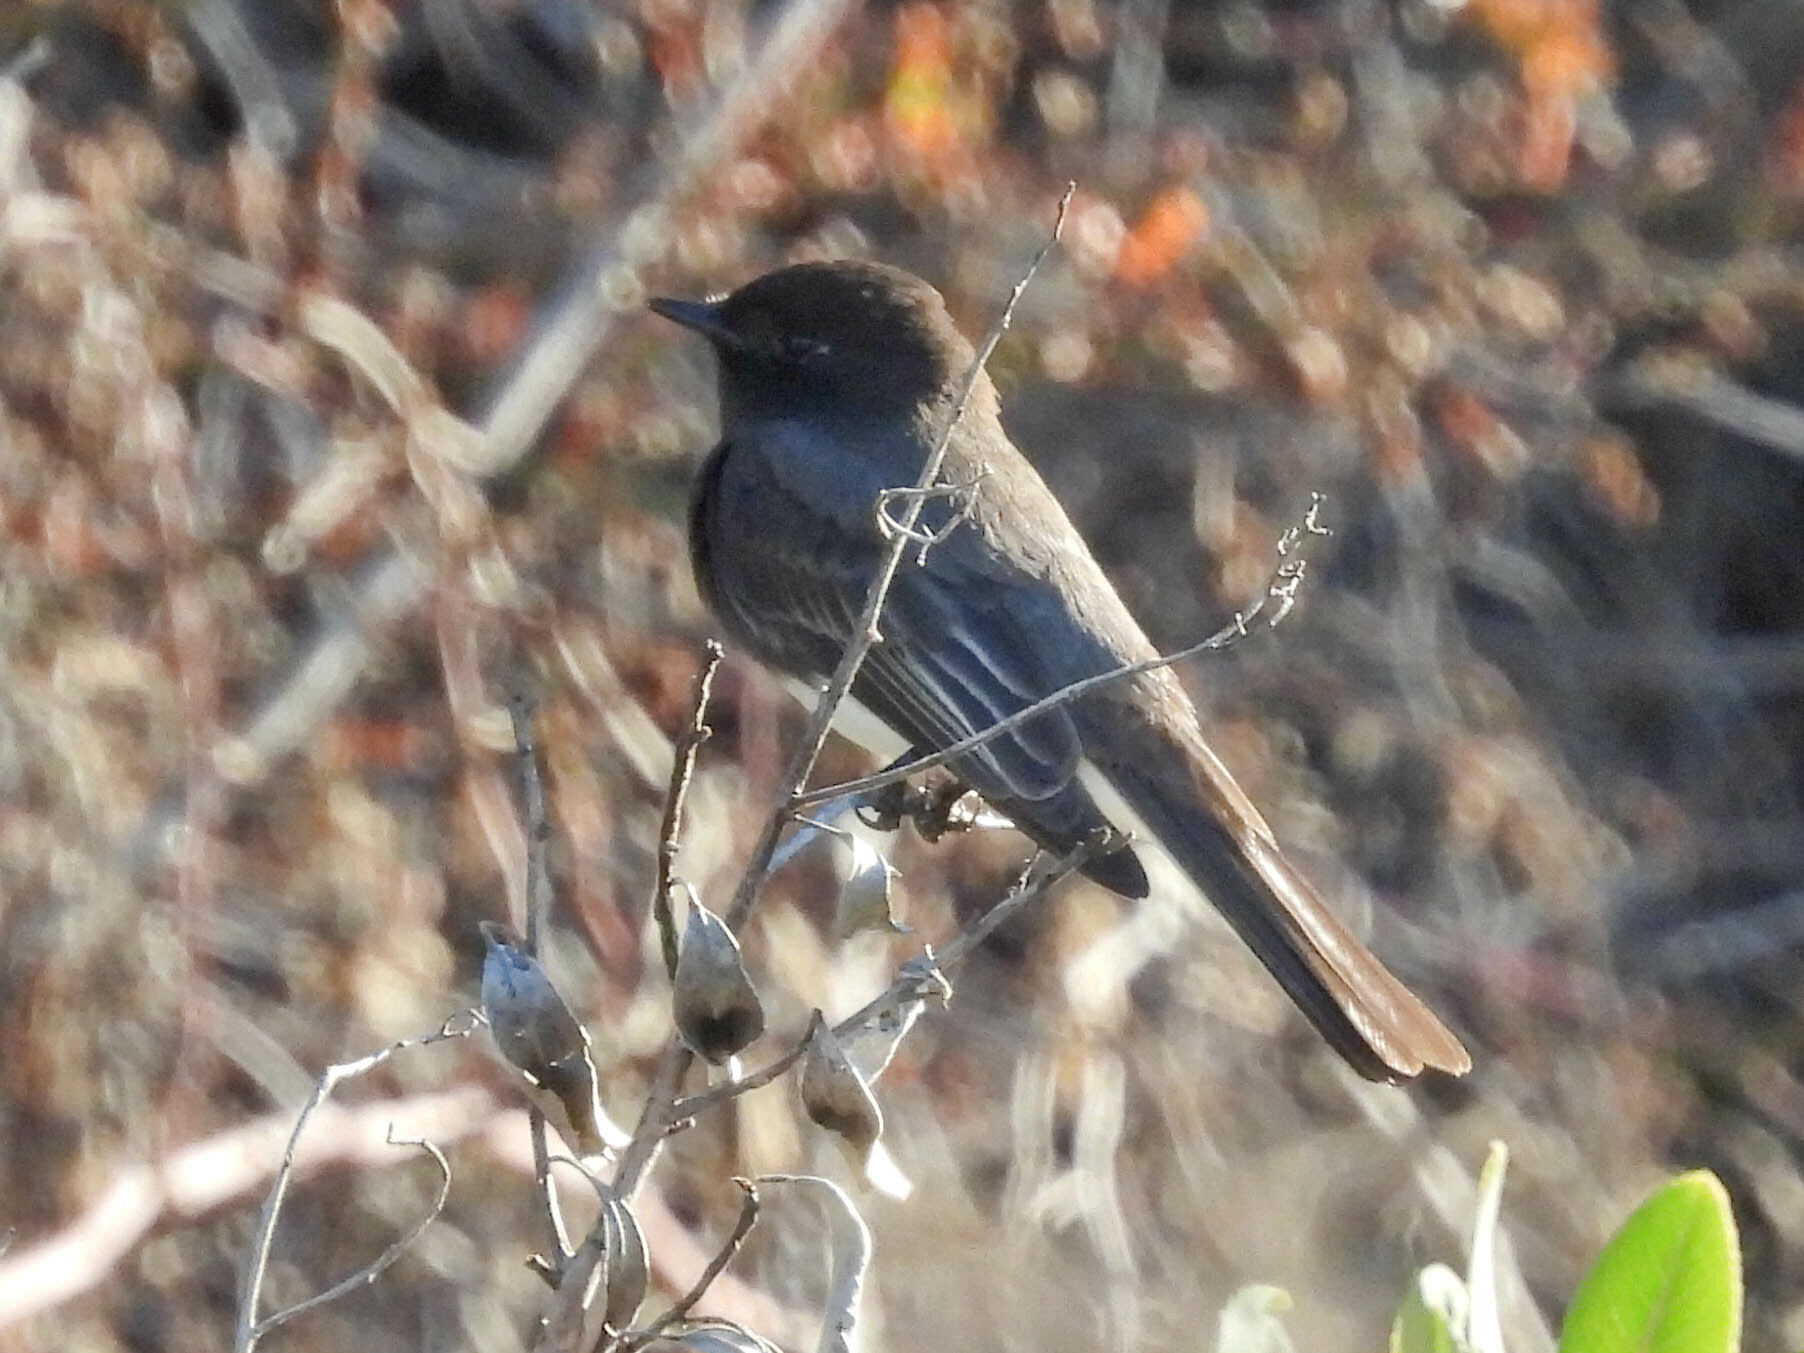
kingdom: Animalia
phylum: Chordata
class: Aves
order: Passeriformes
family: Tyrannidae
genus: Sayornis
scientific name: Sayornis nigricans
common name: Black phoebe
